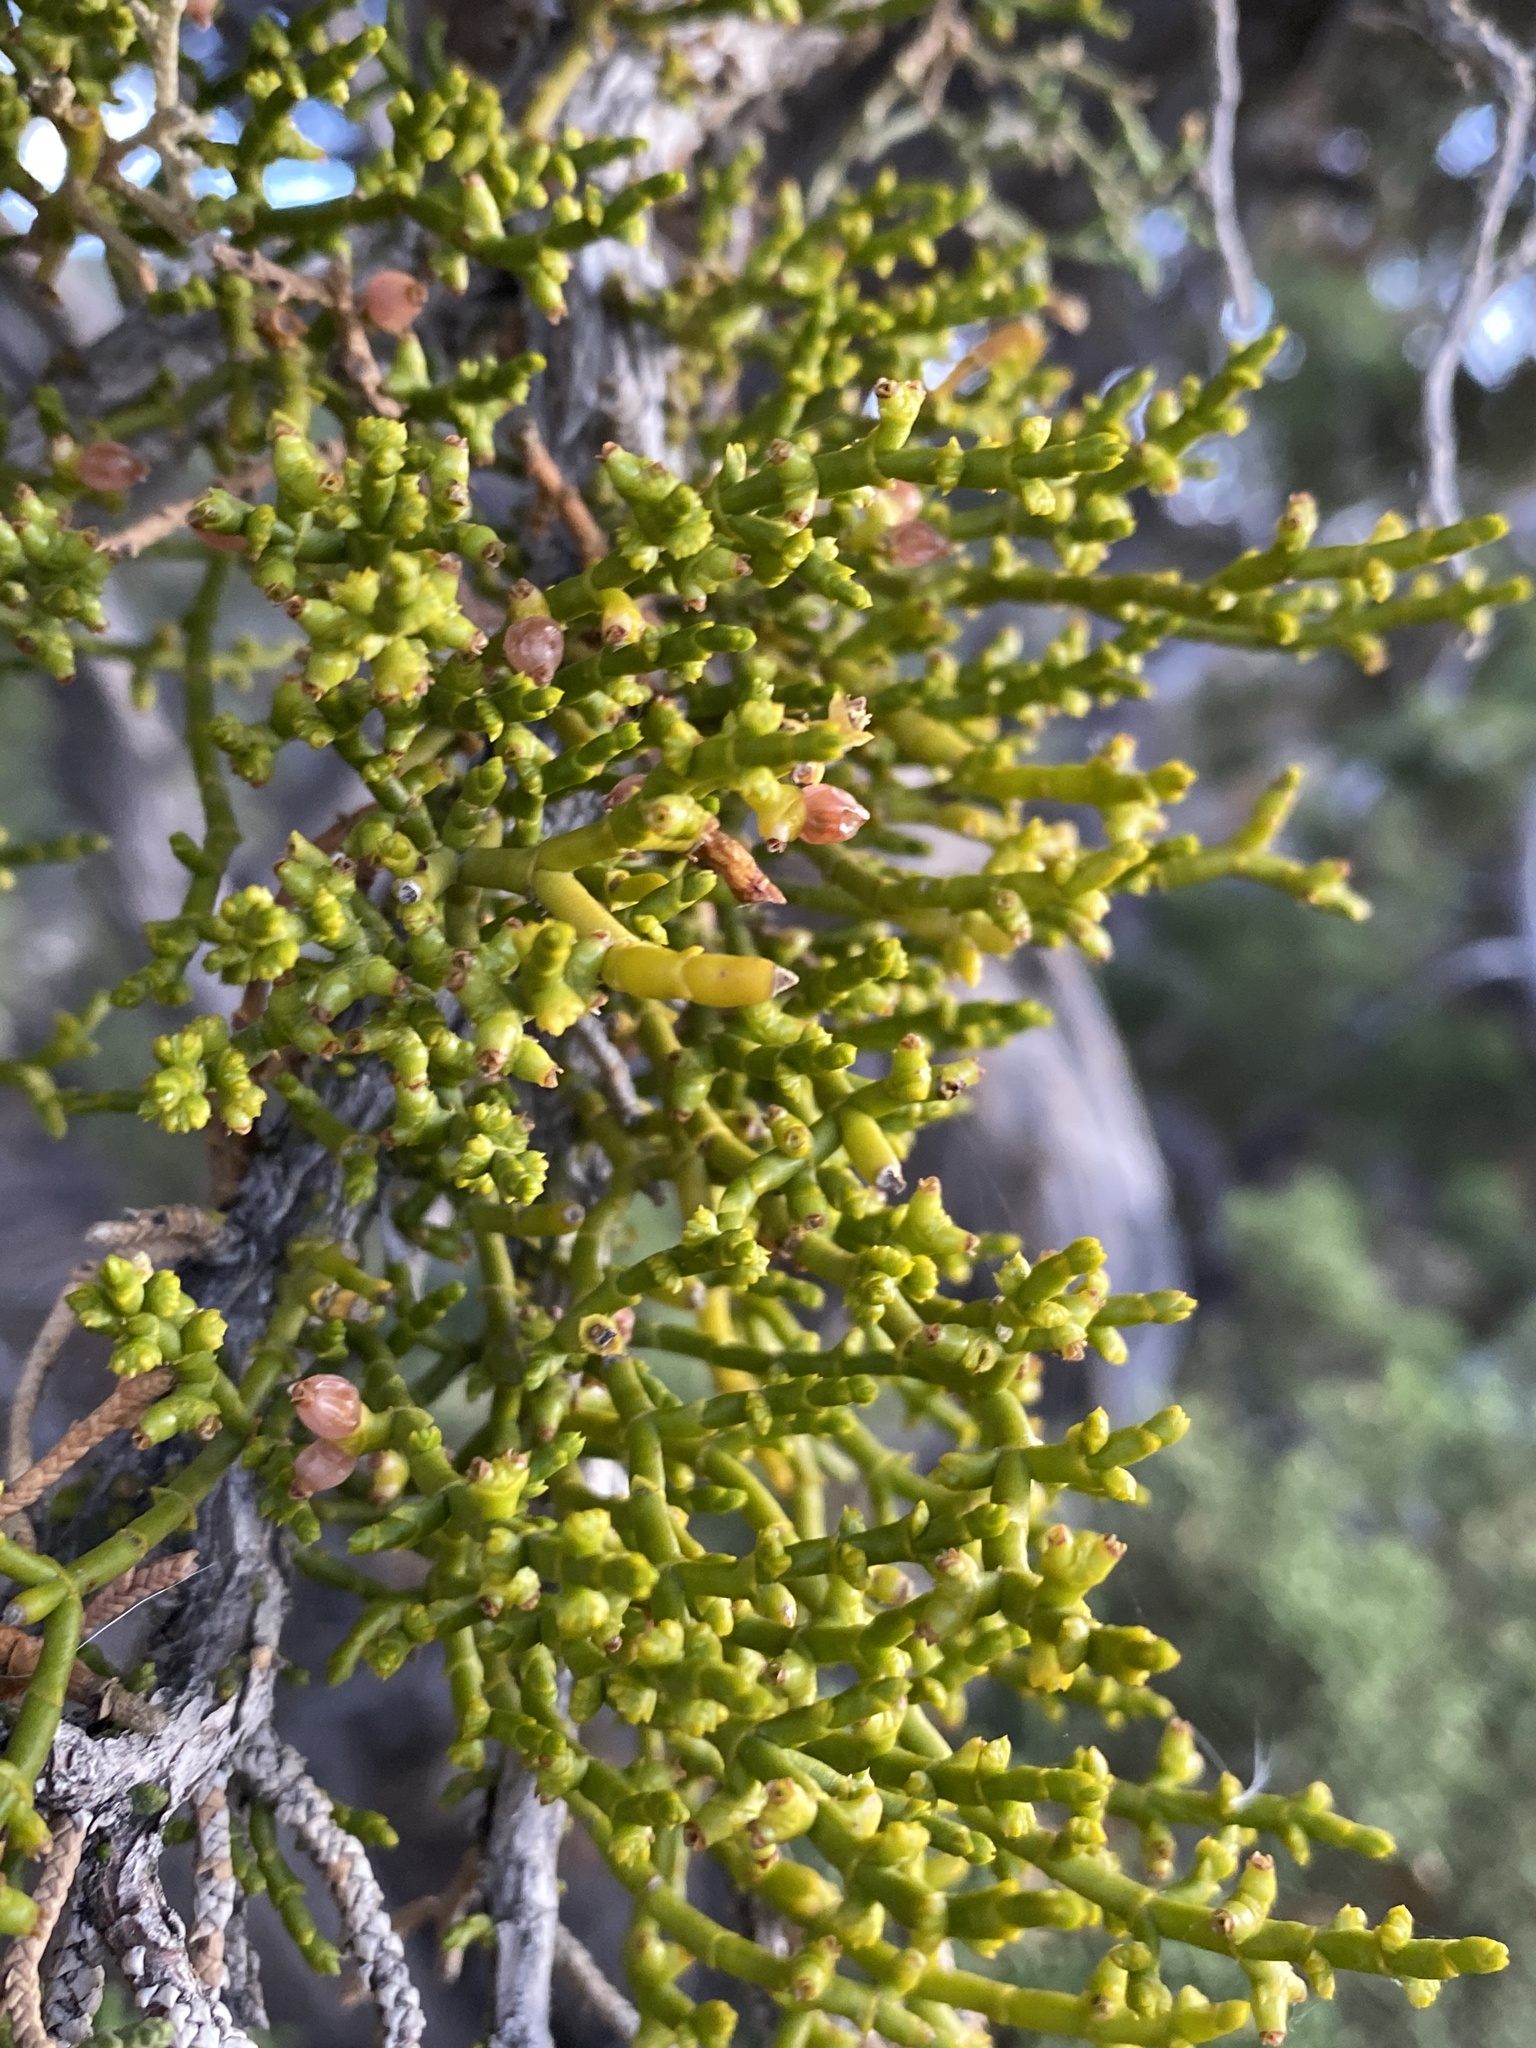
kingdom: Plantae
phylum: Tracheophyta
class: Magnoliopsida
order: Santalales
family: Viscaceae
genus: Phoradendron
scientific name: Phoradendron juniperinum
